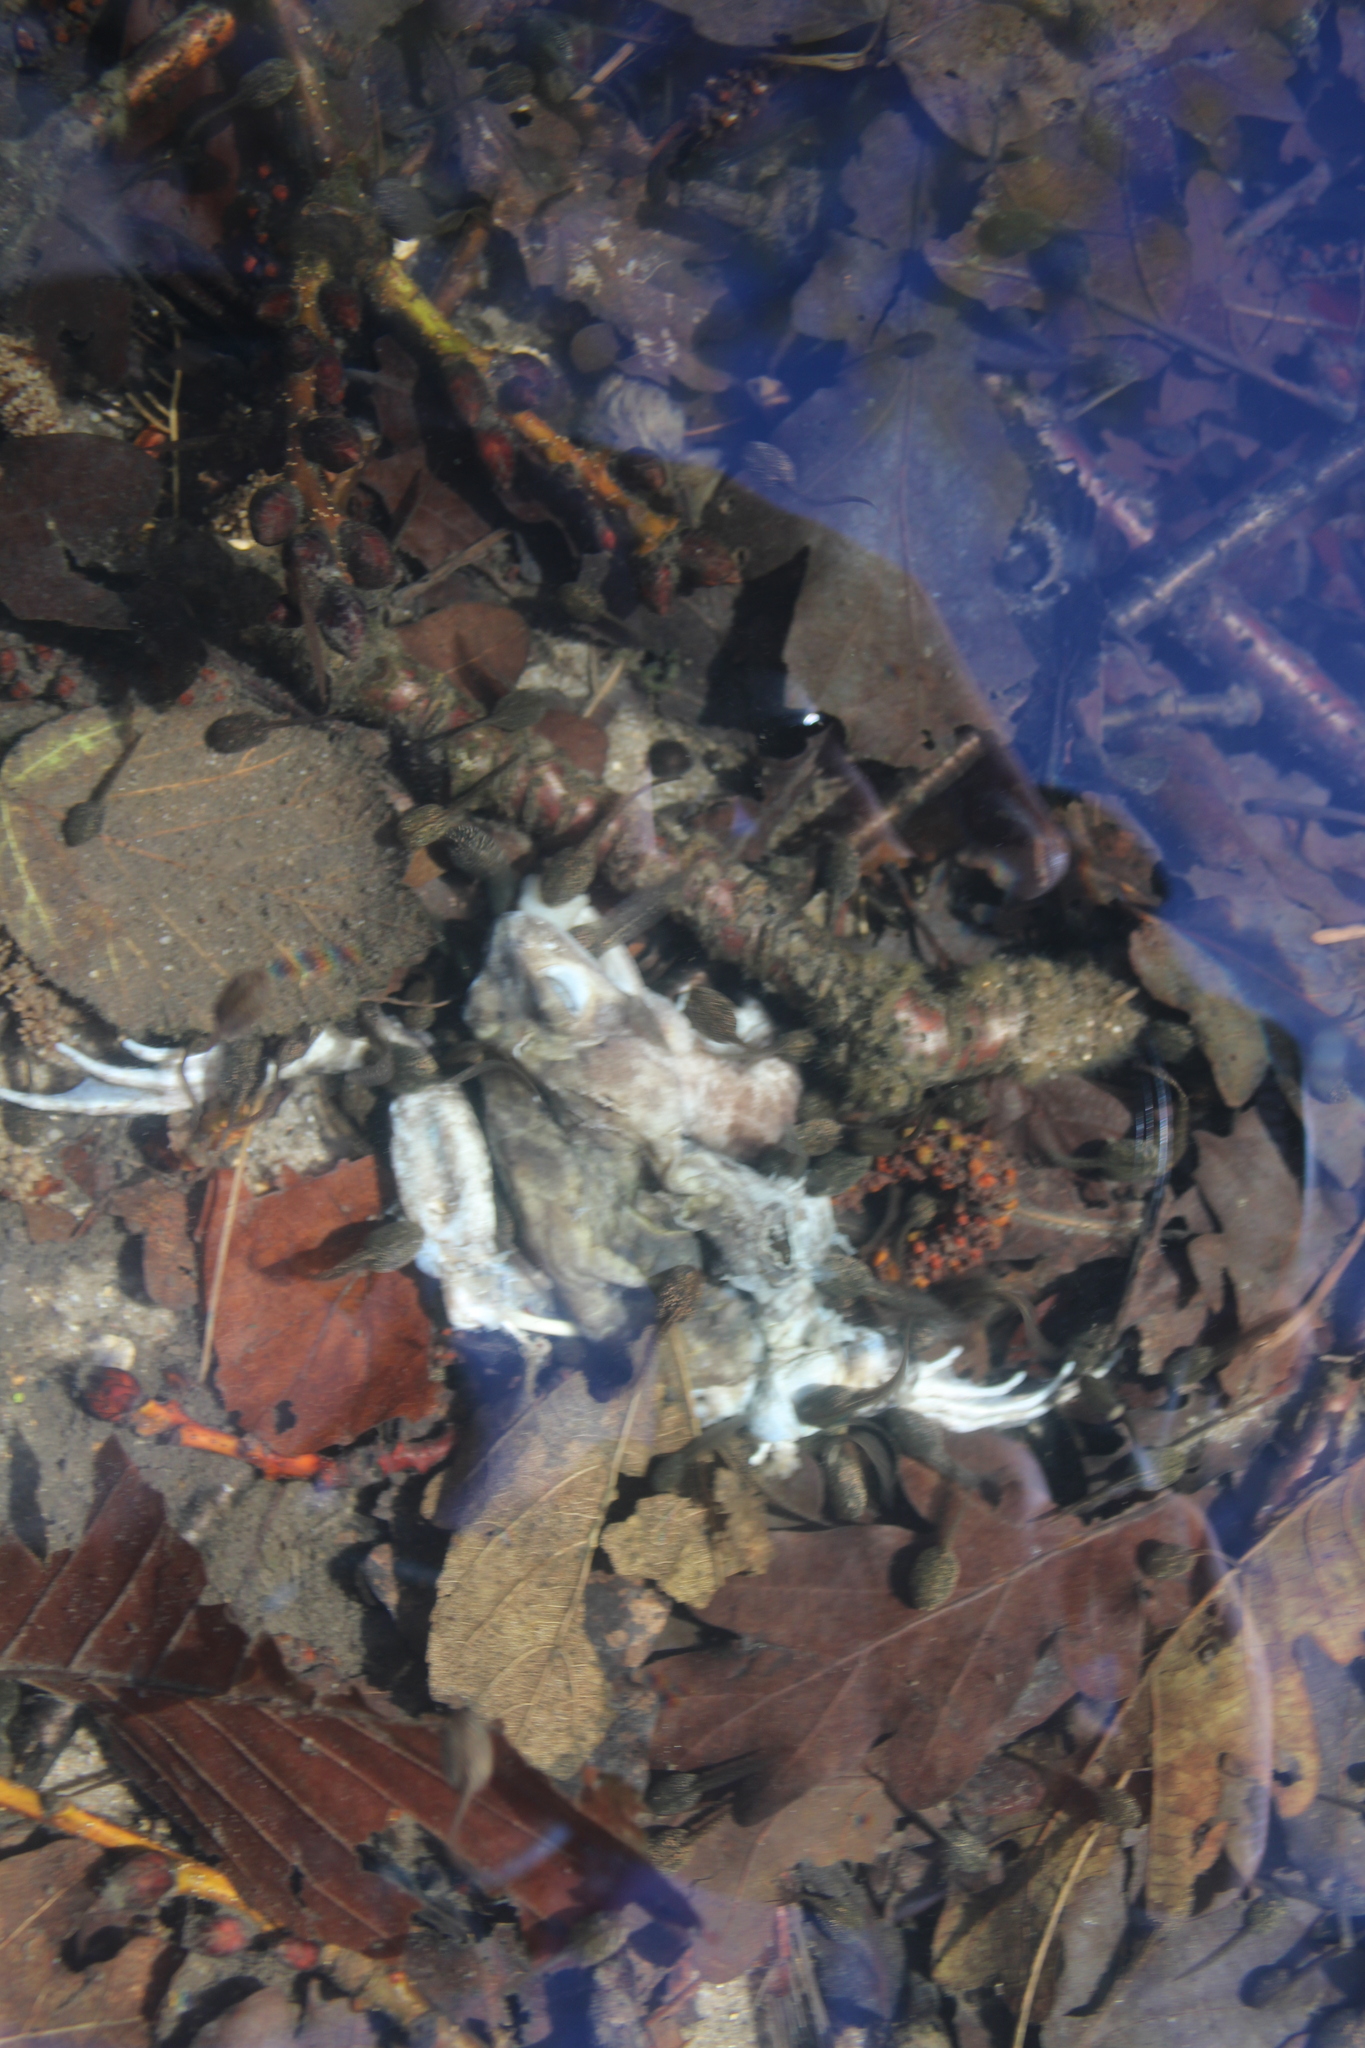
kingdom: Animalia
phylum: Chordata
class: Amphibia
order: Anura
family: Ranidae
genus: Rana
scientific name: Rana temporaria
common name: Common frog
